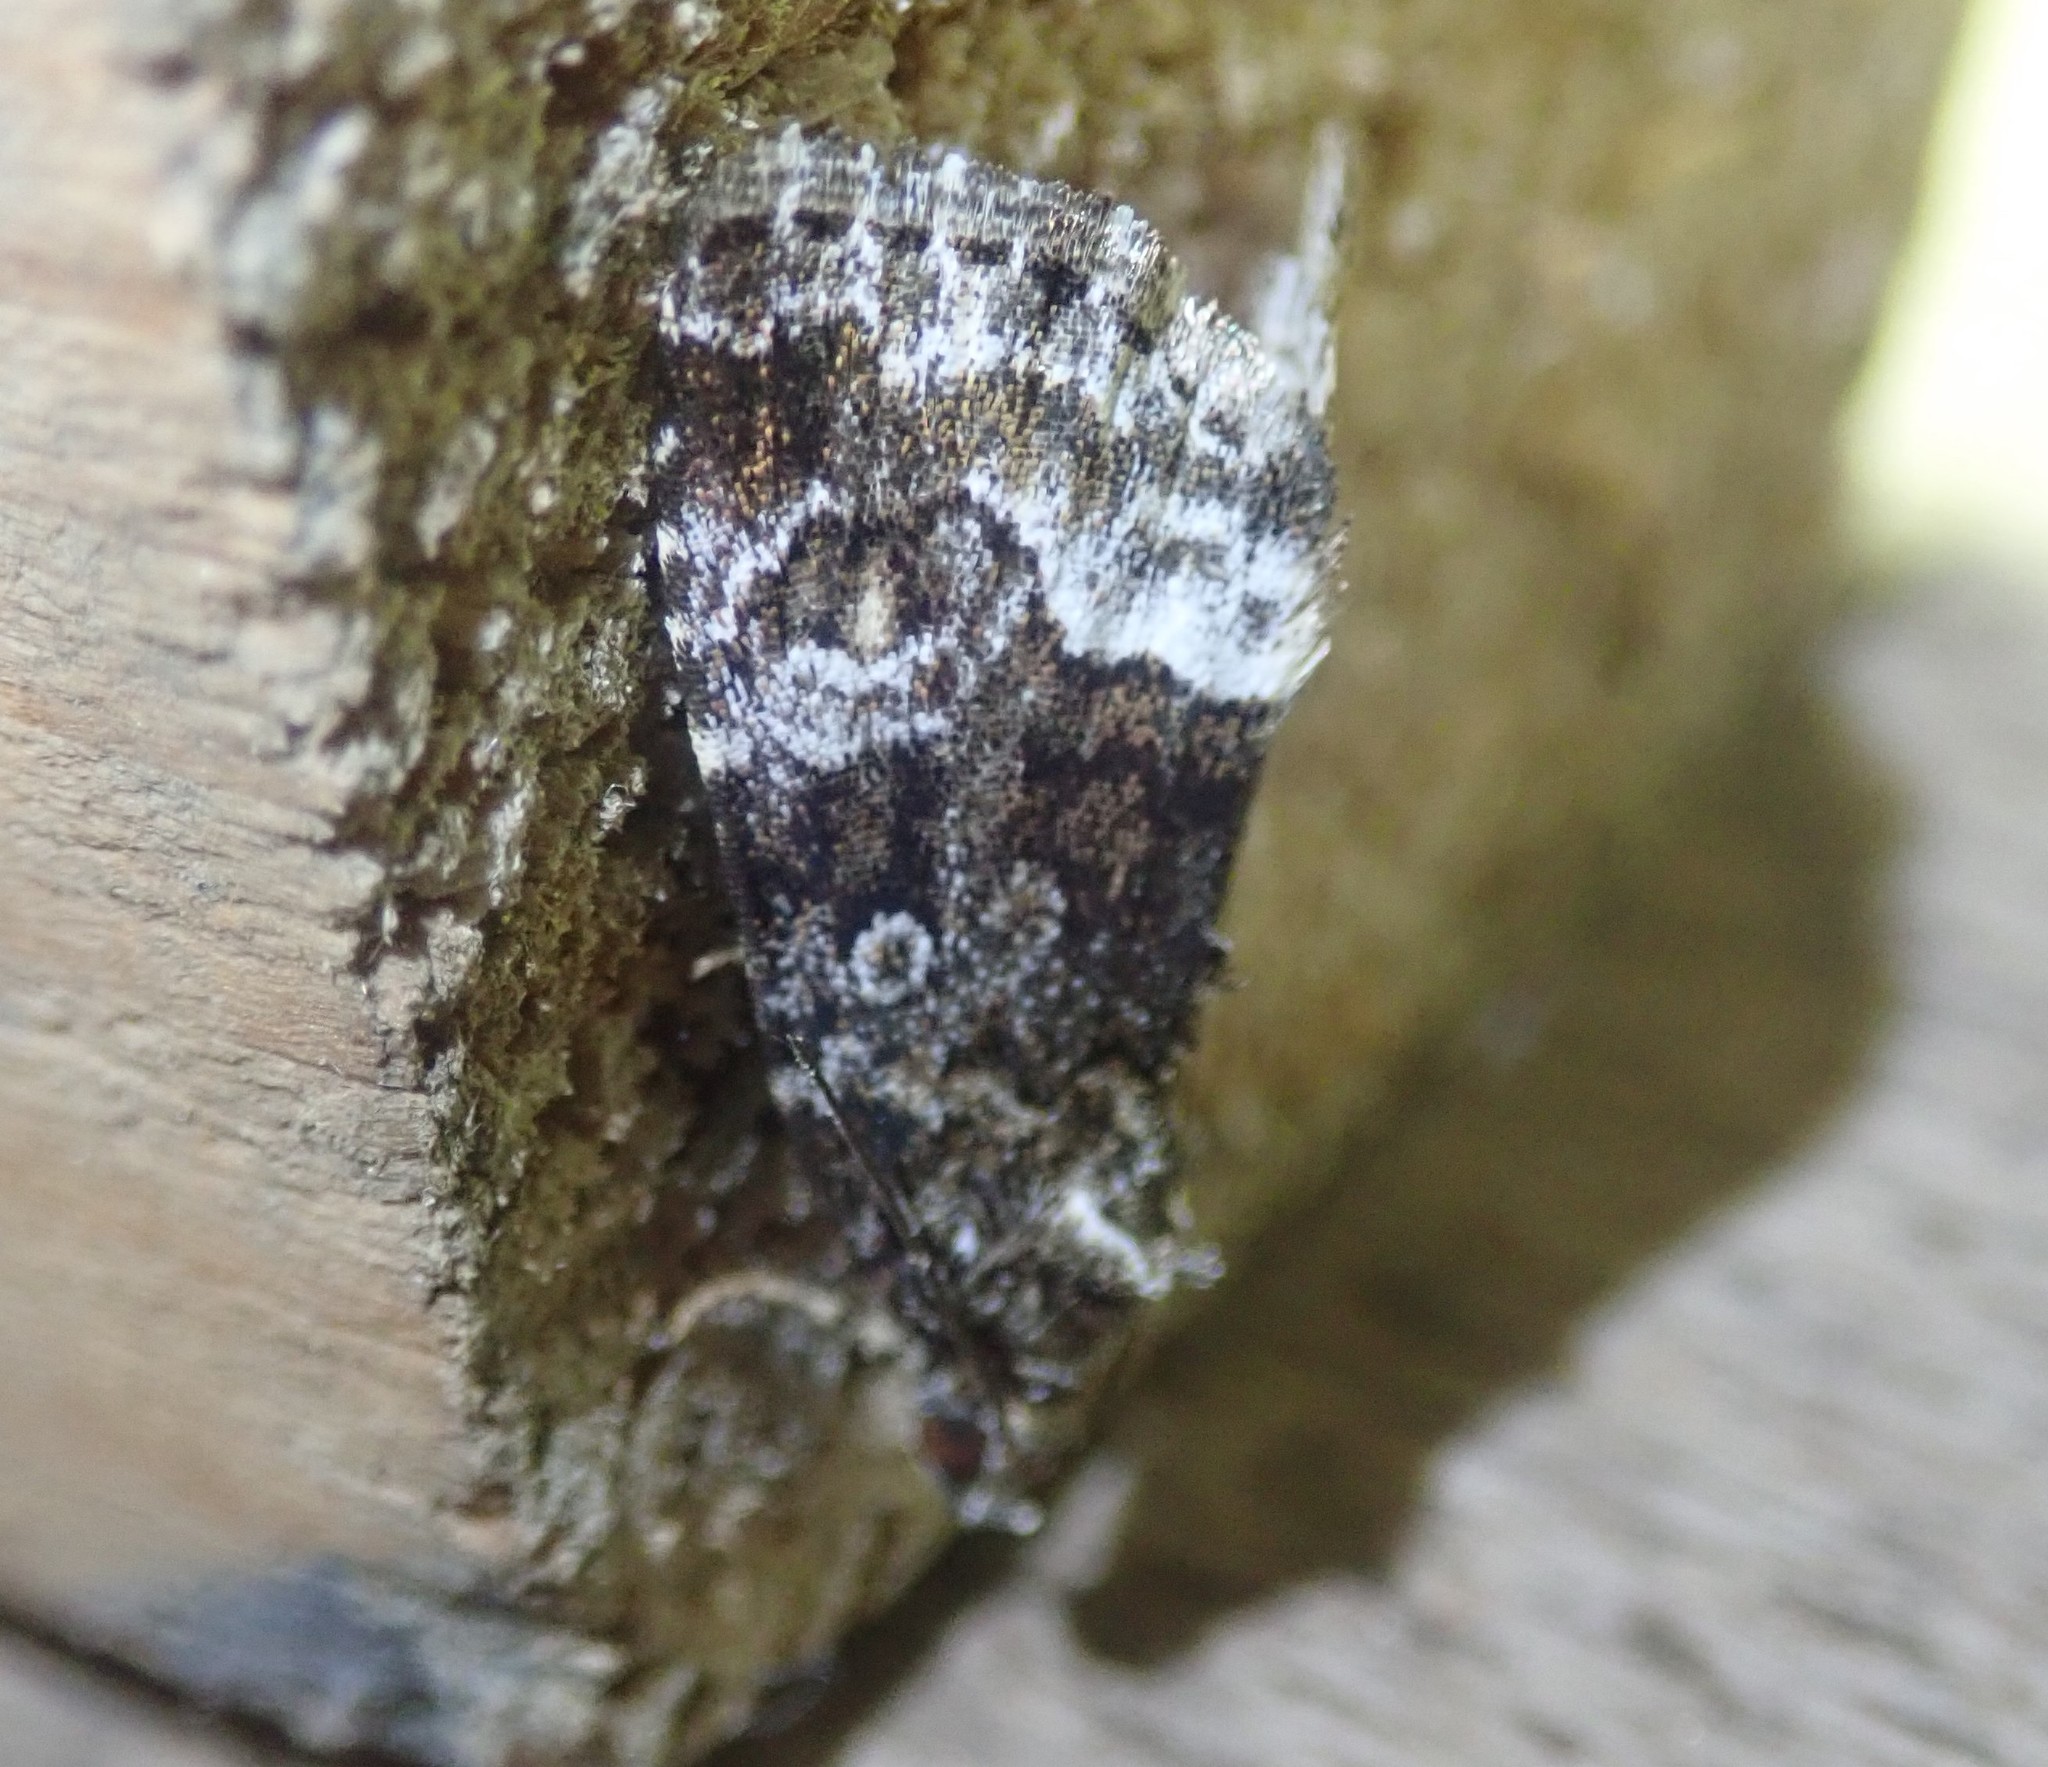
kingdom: Animalia
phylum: Arthropoda
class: Insecta
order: Lepidoptera
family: Noctuidae
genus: Deltote
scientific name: Deltote pygarga
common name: Marbled white spot
